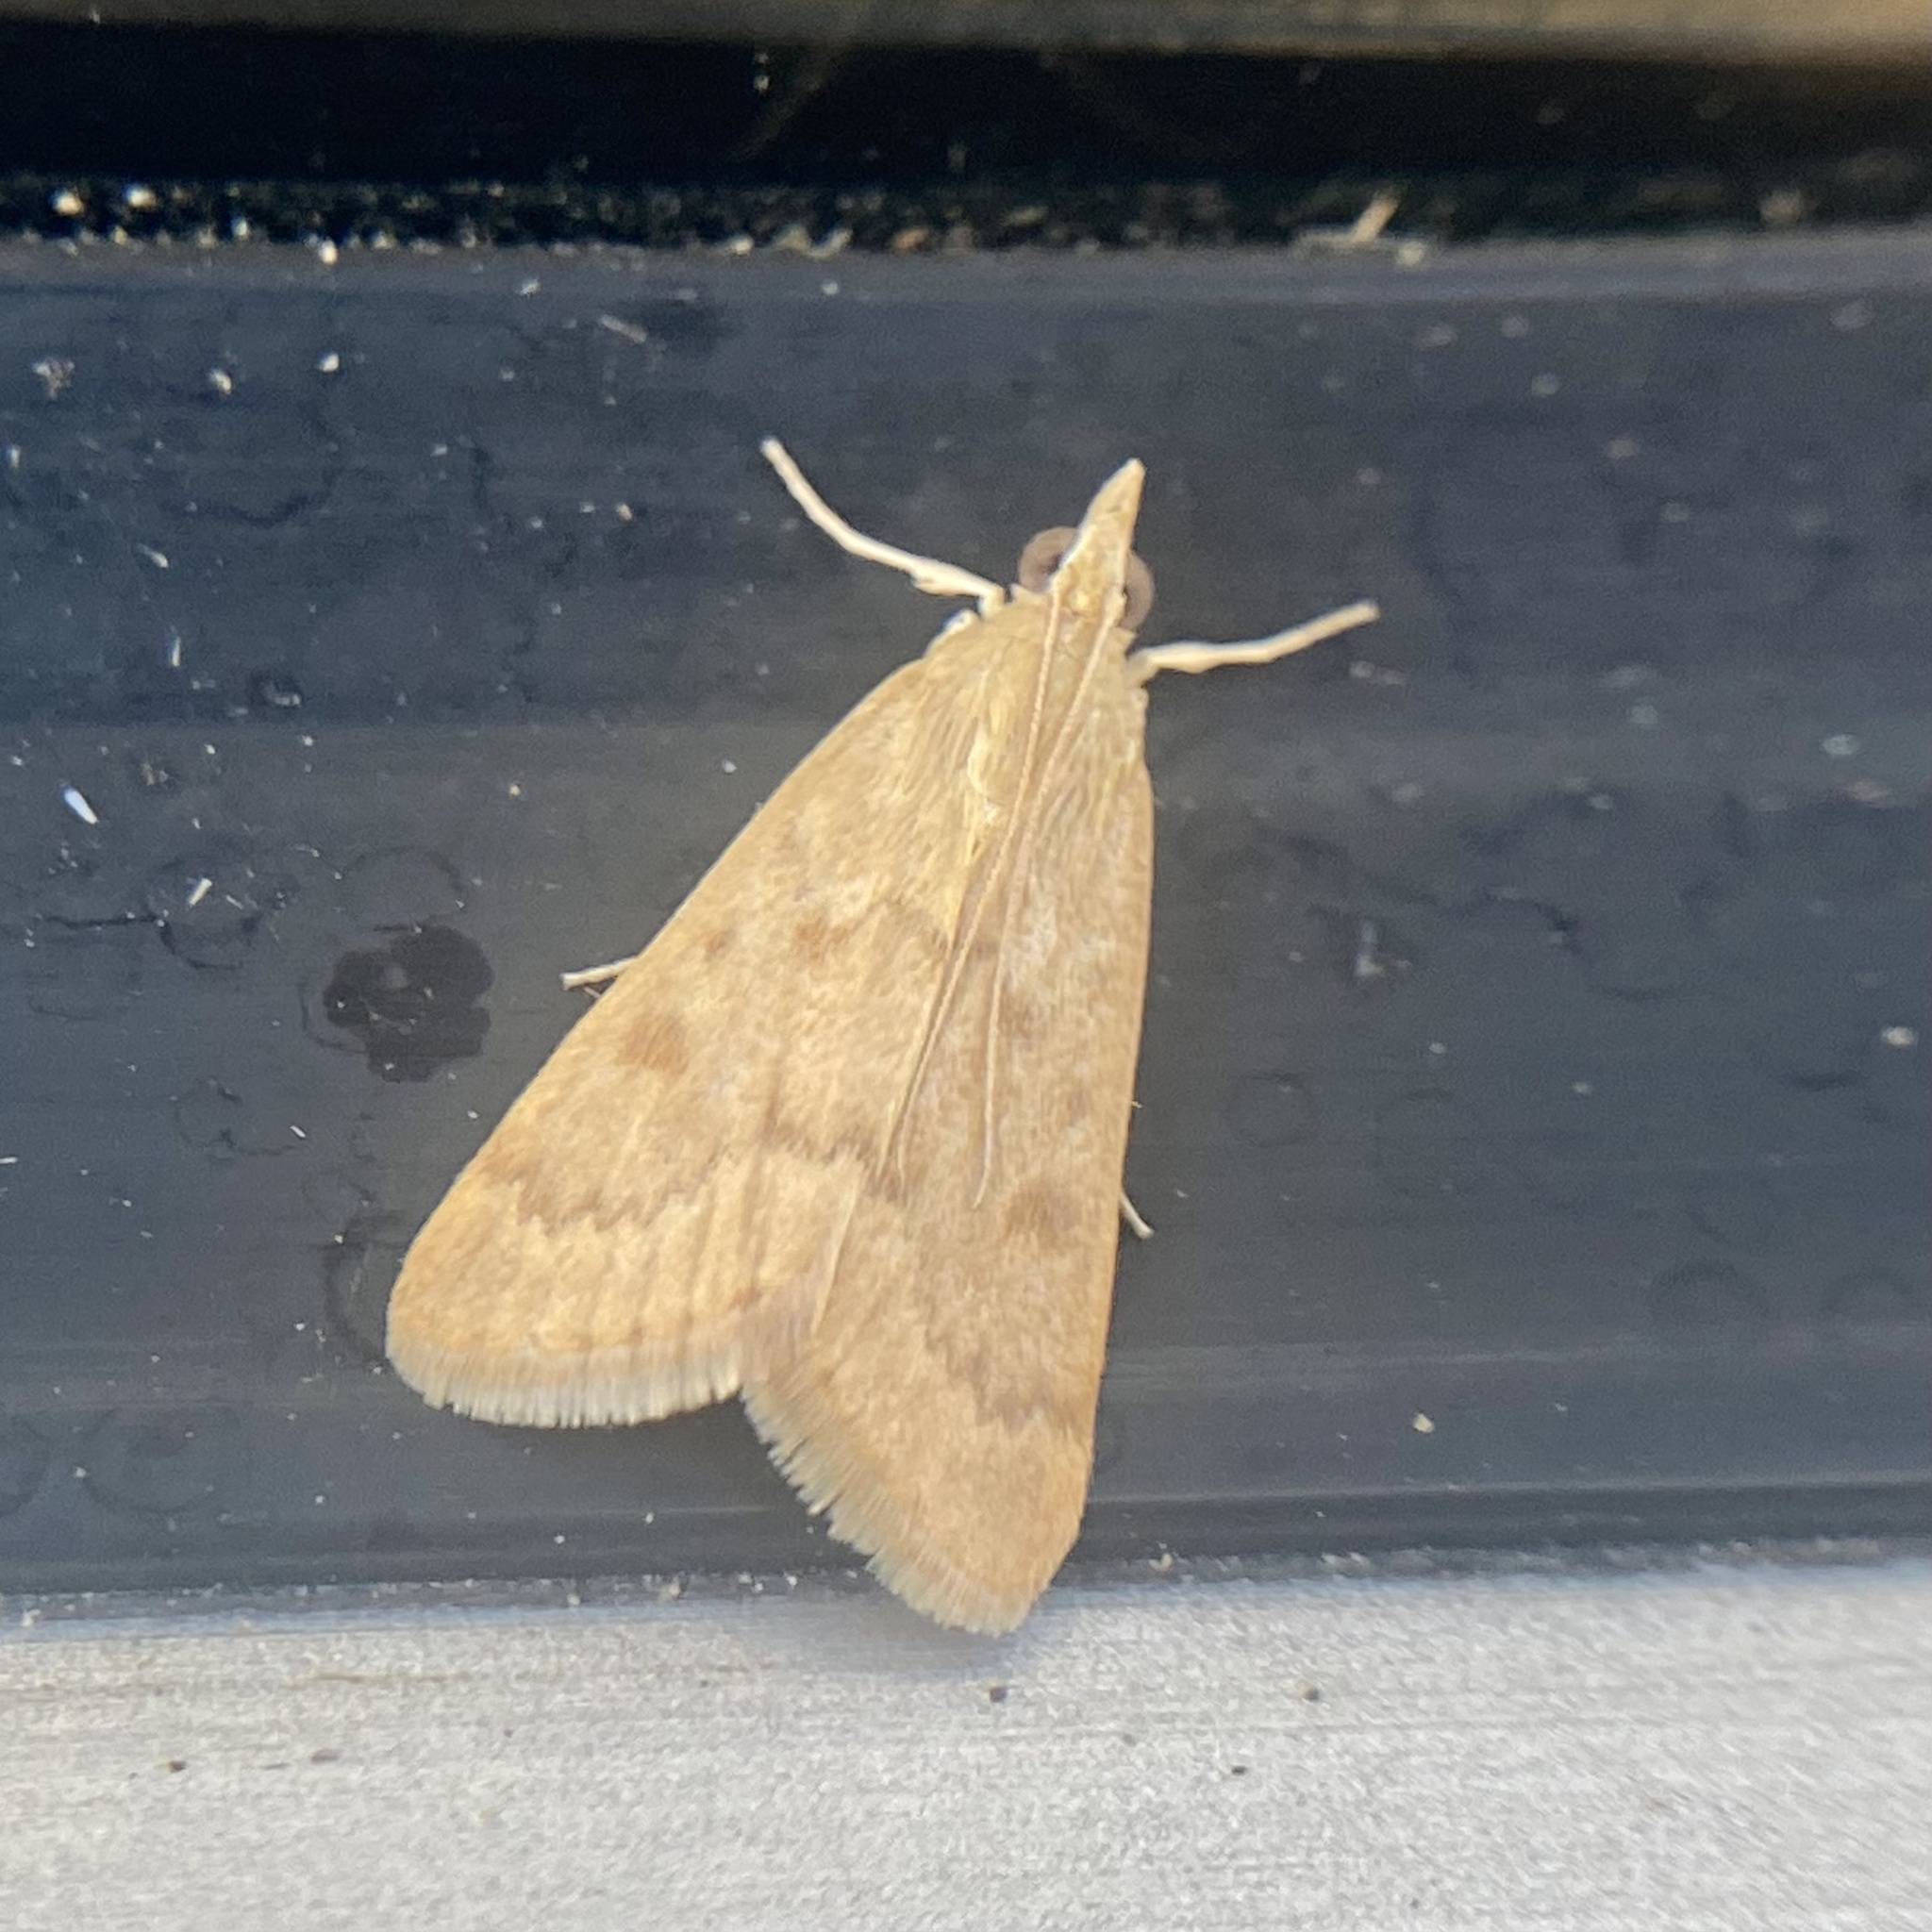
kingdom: Animalia
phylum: Arthropoda
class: Insecta
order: Lepidoptera
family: Crambidae
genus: Achyra
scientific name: Achyra rantalis
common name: Garden webworm
